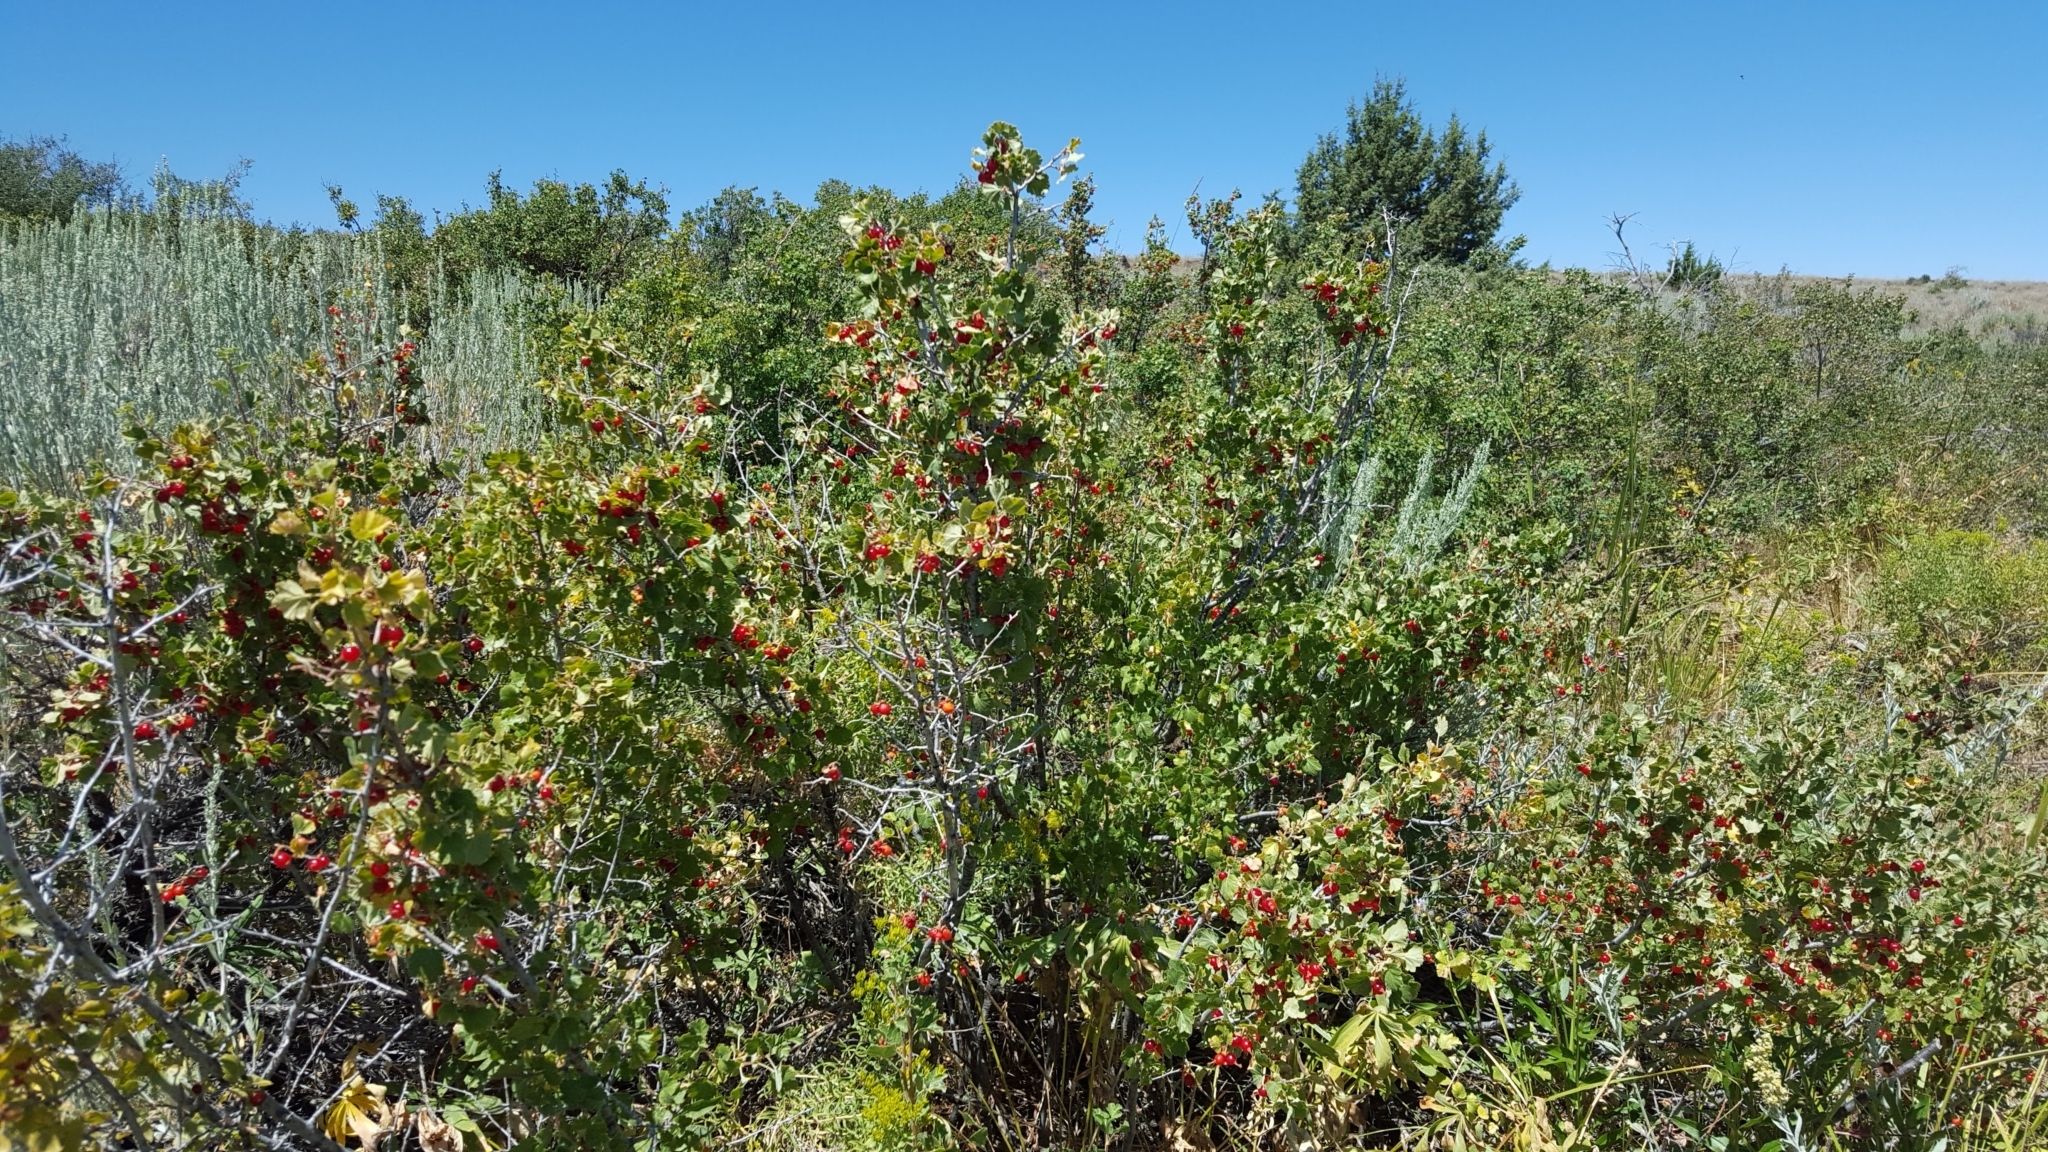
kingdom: Plantae
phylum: Tracheophyta
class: Magnoliopsida
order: Saxifragales
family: Grossulariaceae
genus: Ribes
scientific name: Ribes cereum
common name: Wax currant
